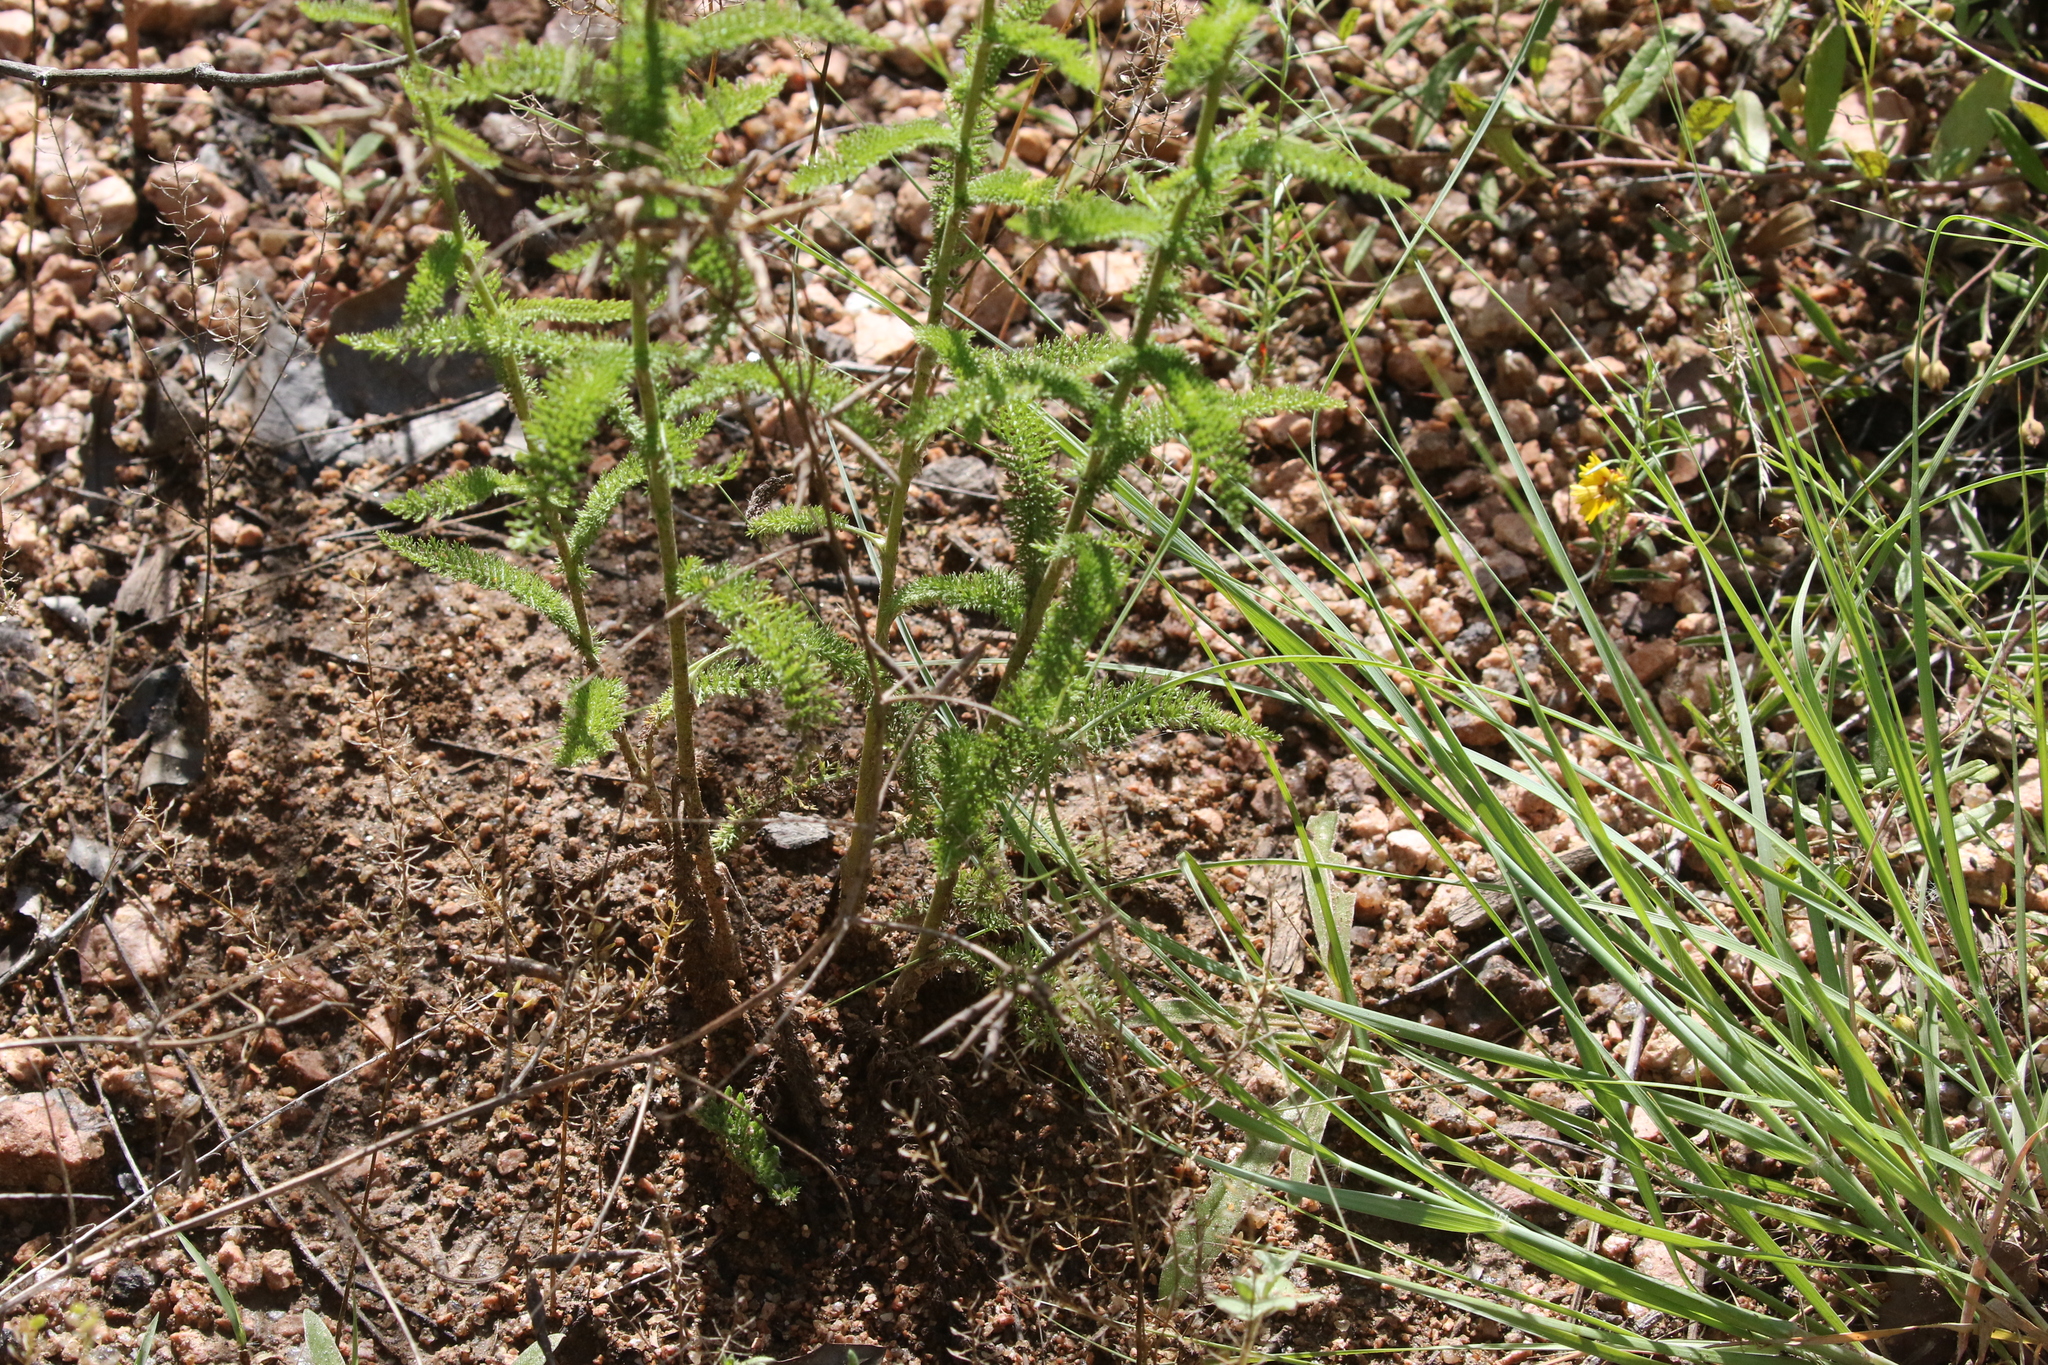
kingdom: Plantae
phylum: Tracheophyta
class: Magnoliopsida
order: Asterales
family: Asteraceae
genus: Achillea
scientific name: Achillea millefolium
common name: Yarrow
